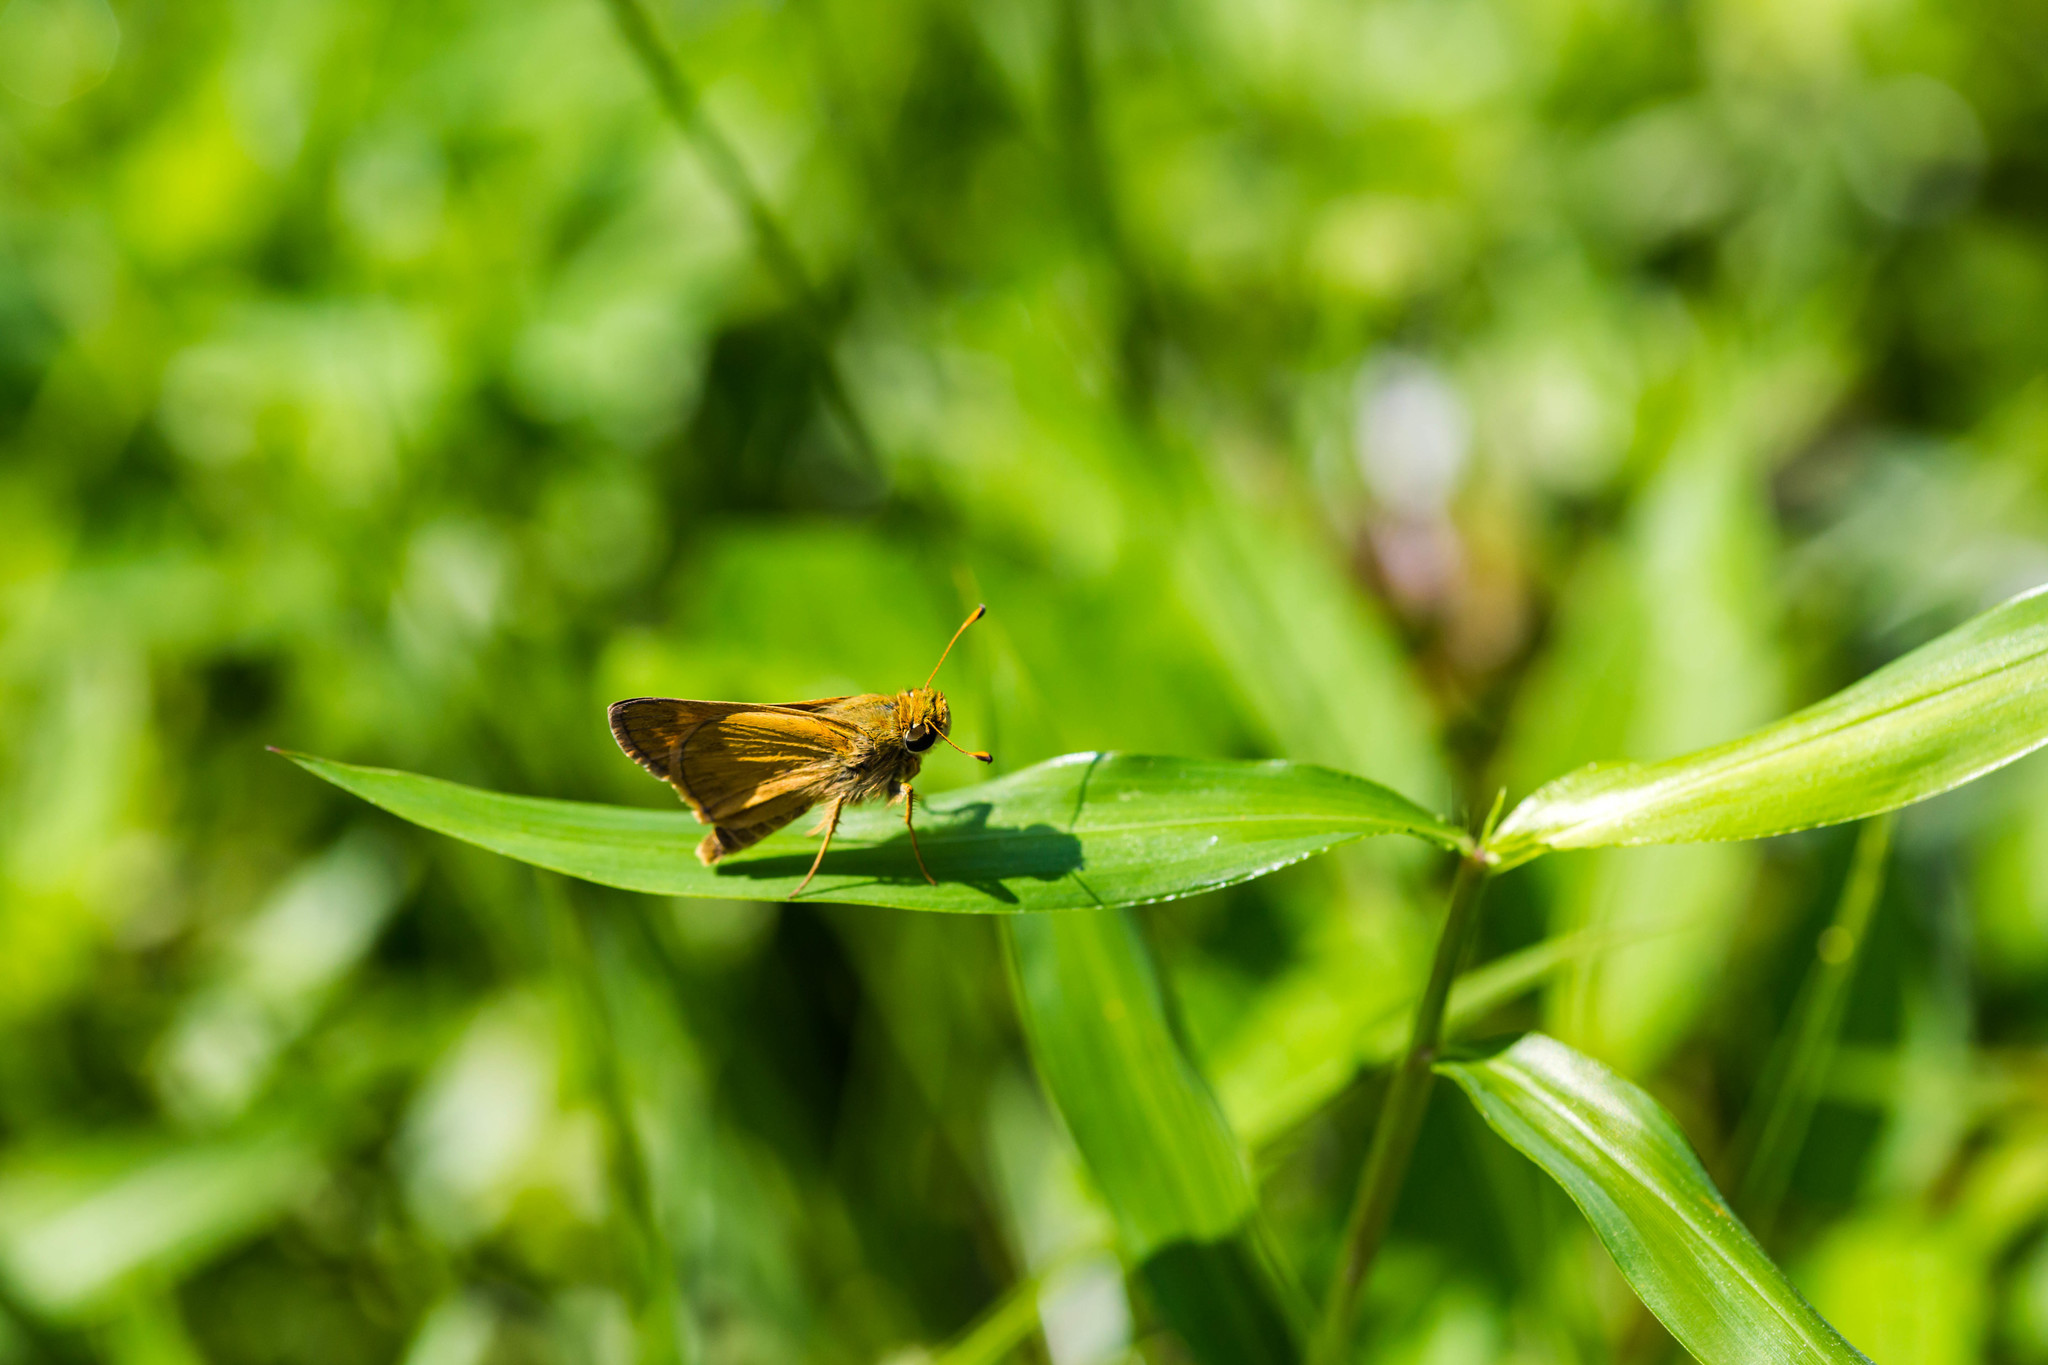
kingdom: Animalia
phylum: Arthropoda
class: Insecta
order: Lepidoptera
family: Hesperiidae
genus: Atalopedes
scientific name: Atalopedes
